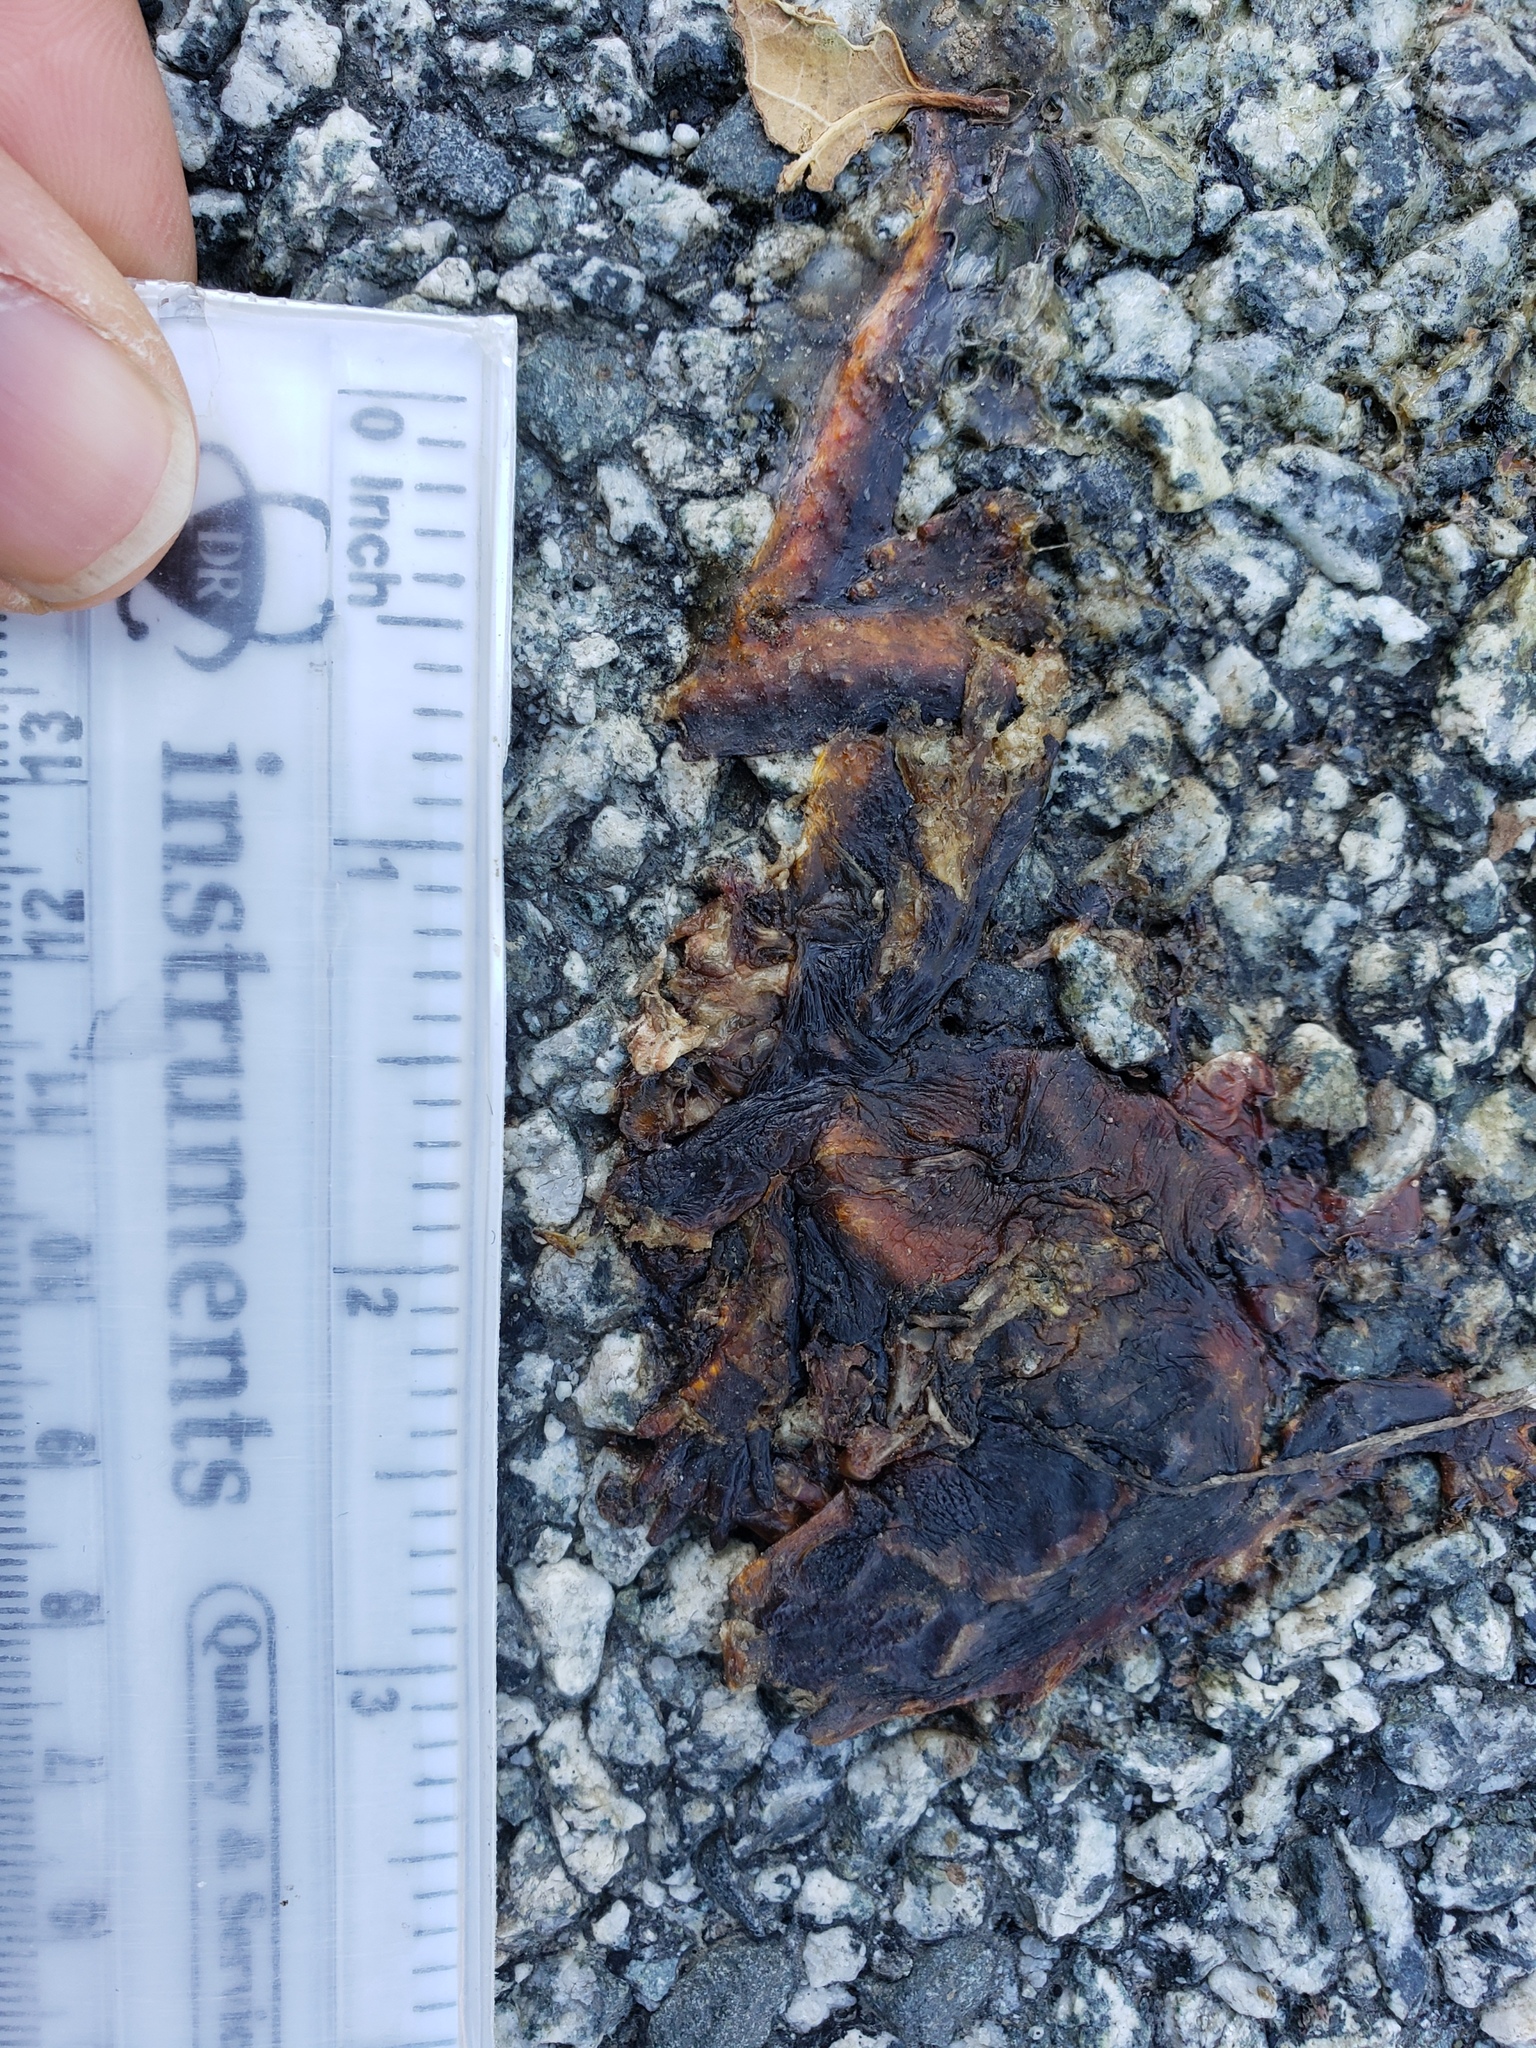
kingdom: Animalia
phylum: Chordata
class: Amphibia
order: Caudata
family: Salamandridae
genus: Taricha
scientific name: Taricha
